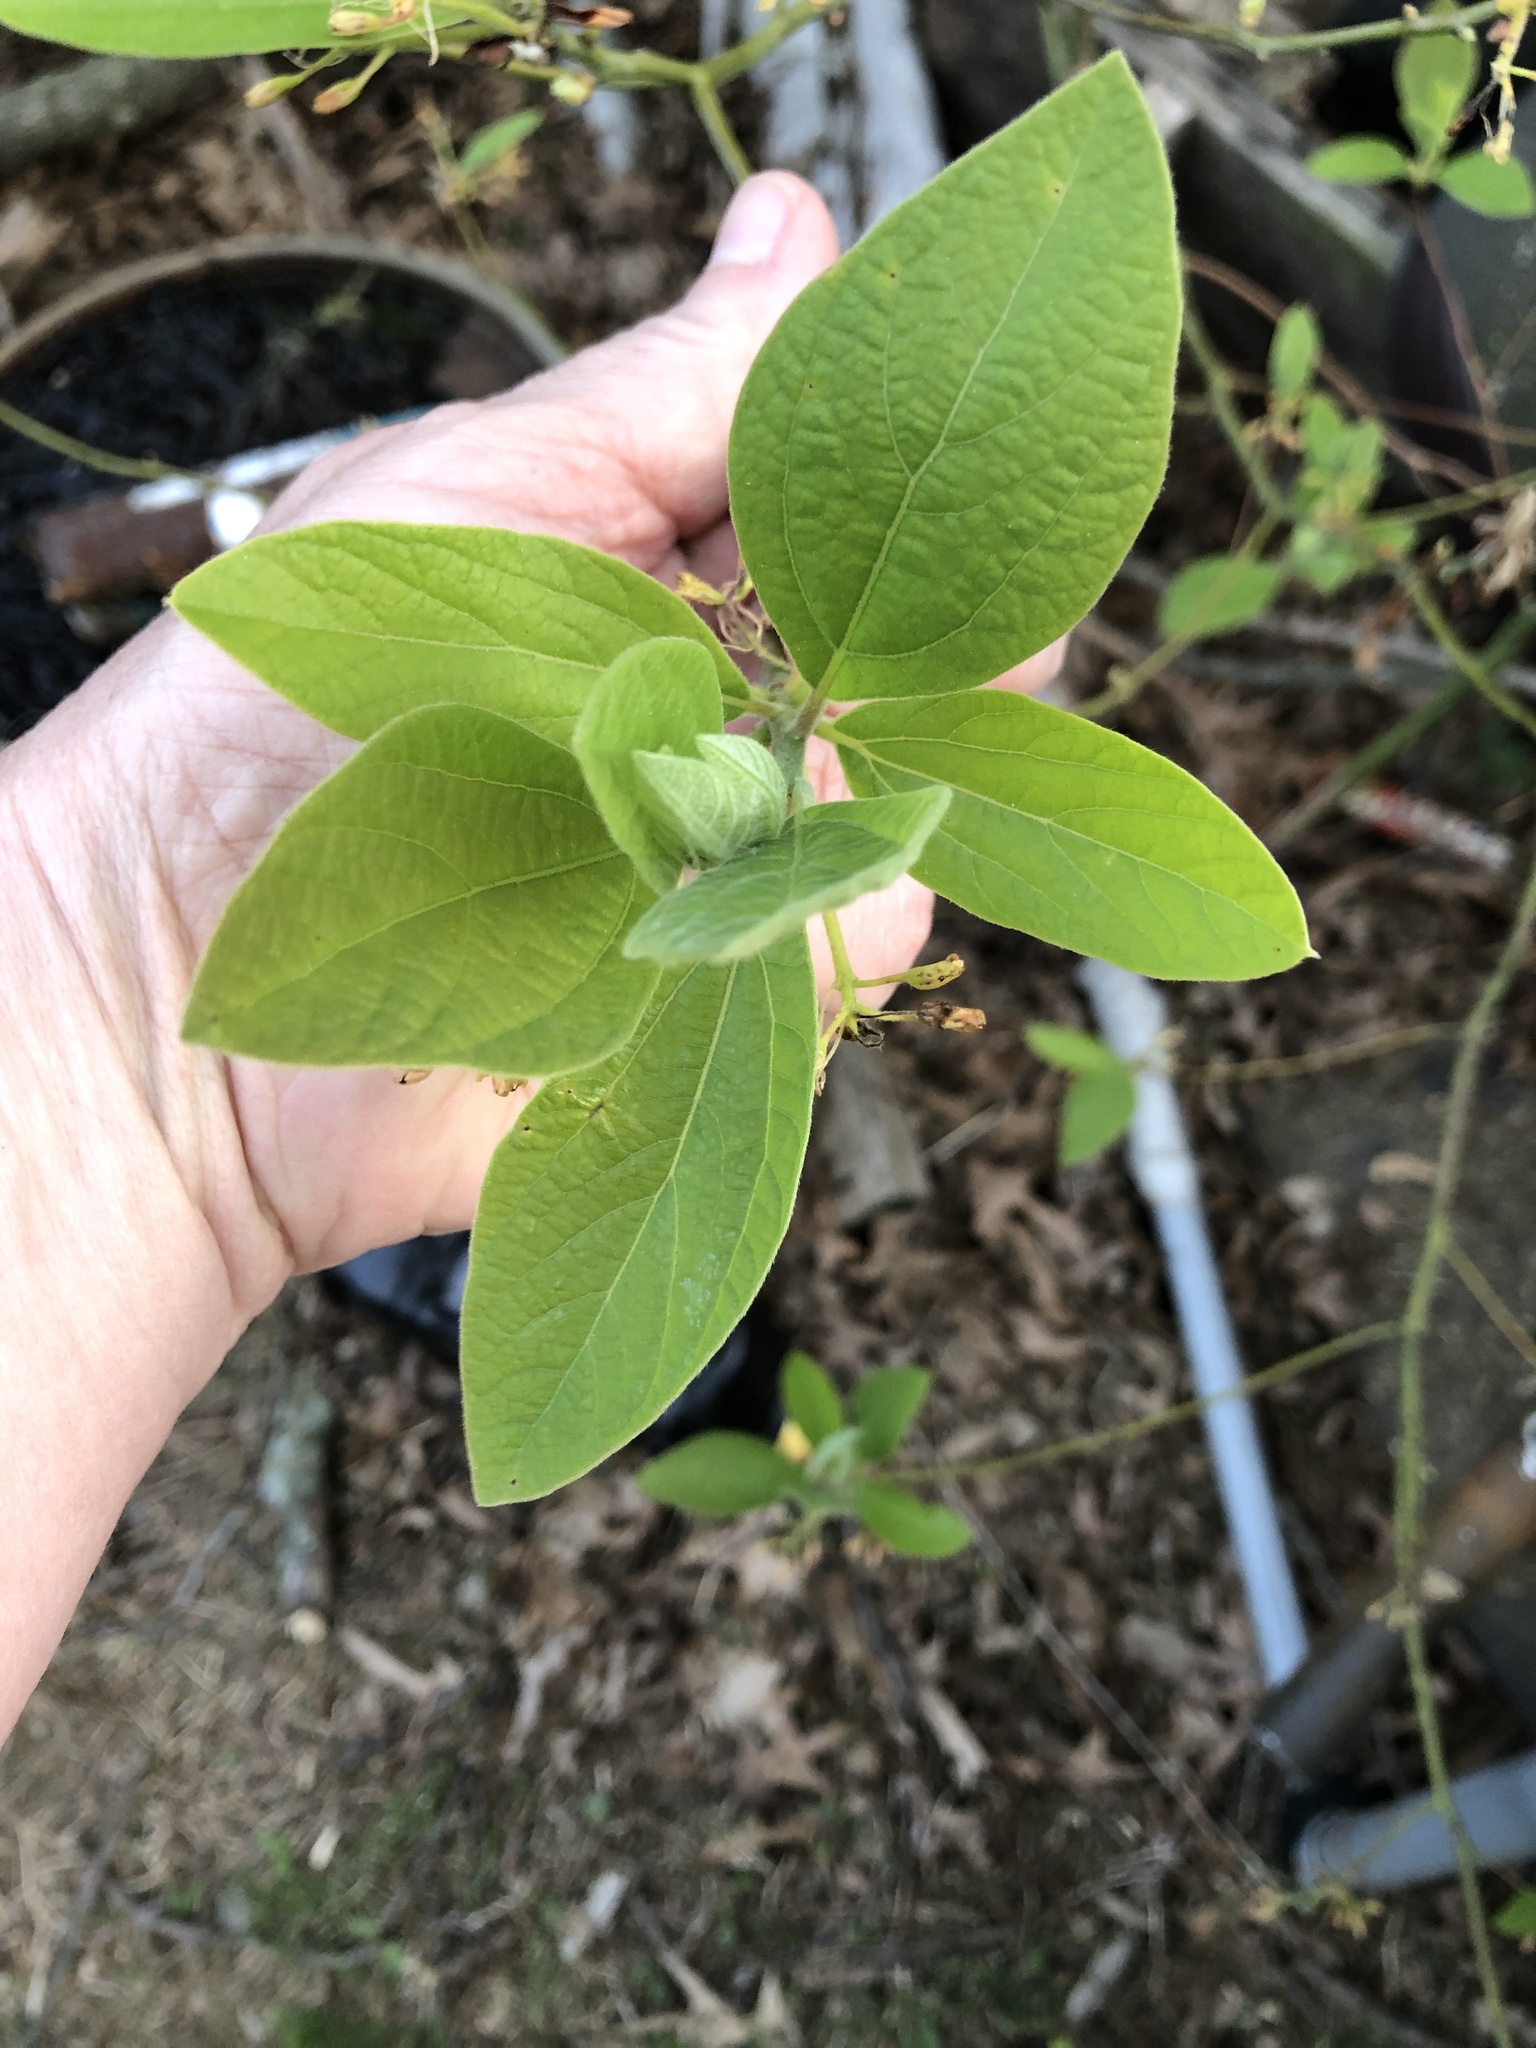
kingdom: Plantae
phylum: Tracheophyta
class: Magnoliopsida
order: Laurales
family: Lauraceae
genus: Sassafras
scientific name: Sassafras albidum
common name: Sassafras
